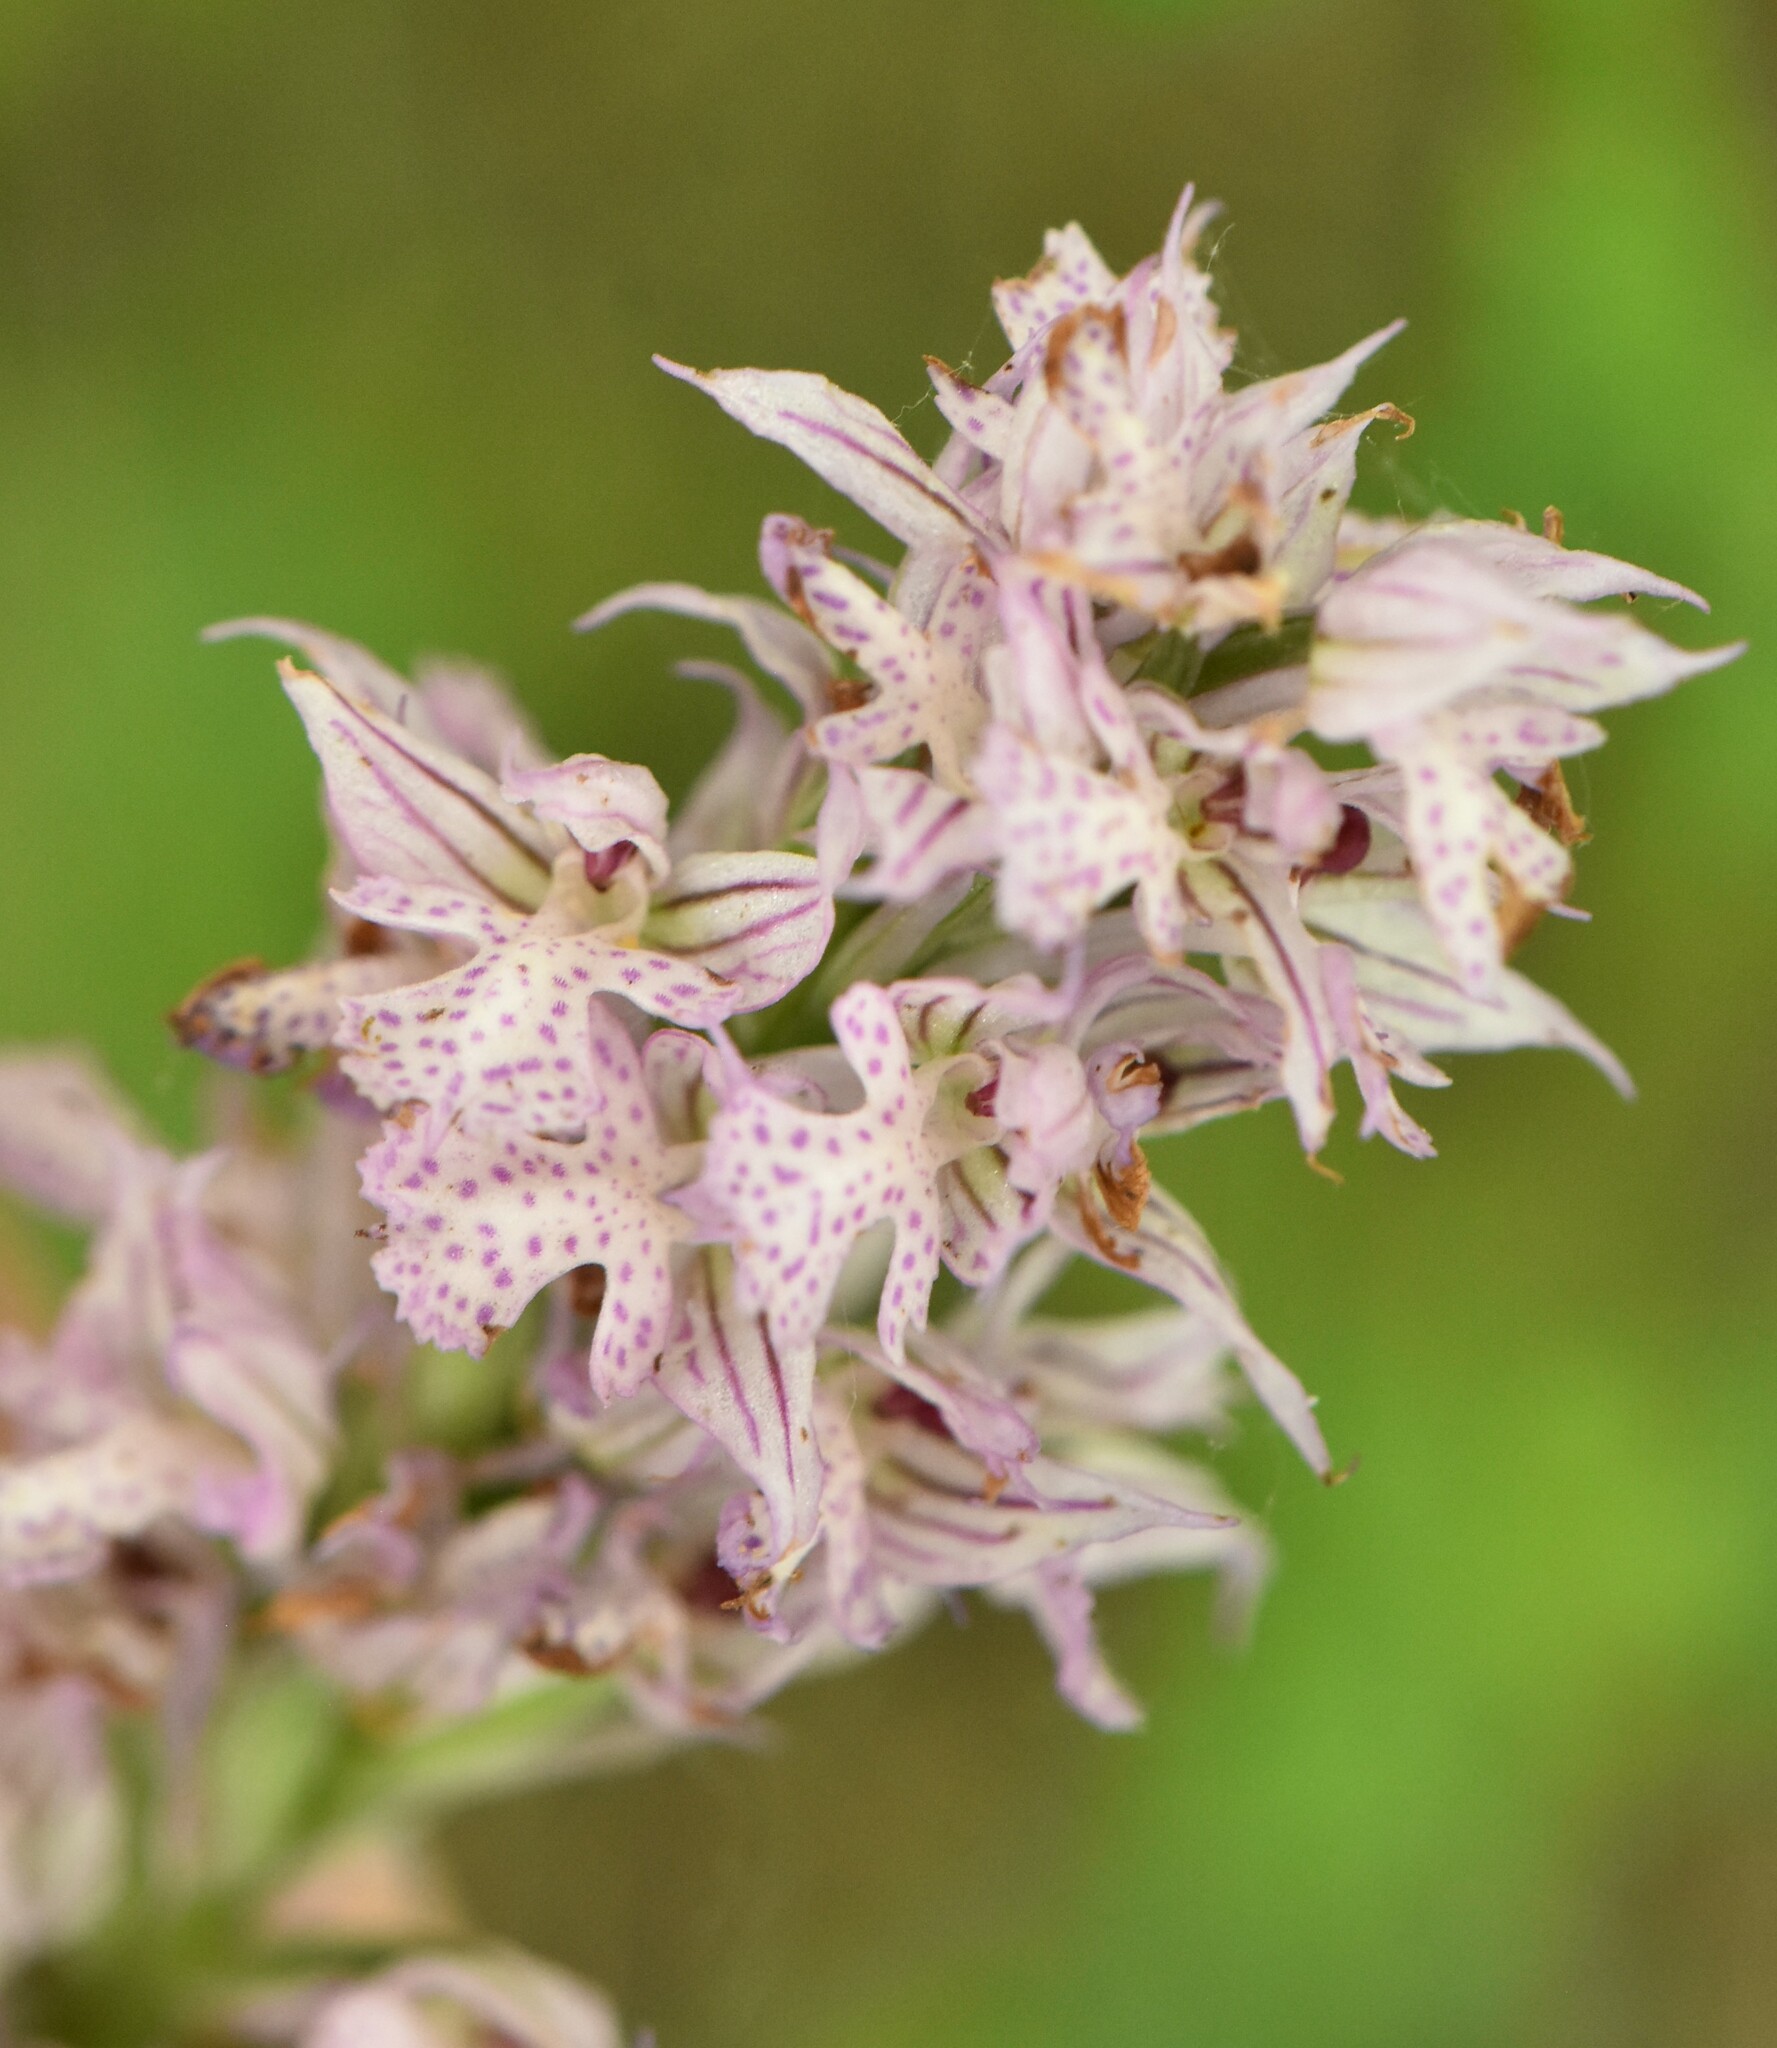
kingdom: Plantae
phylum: Tracheophyta
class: Liliopsida
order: Asparagales
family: Orchidaceae
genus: Neotinea
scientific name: Neotinea tridentata
